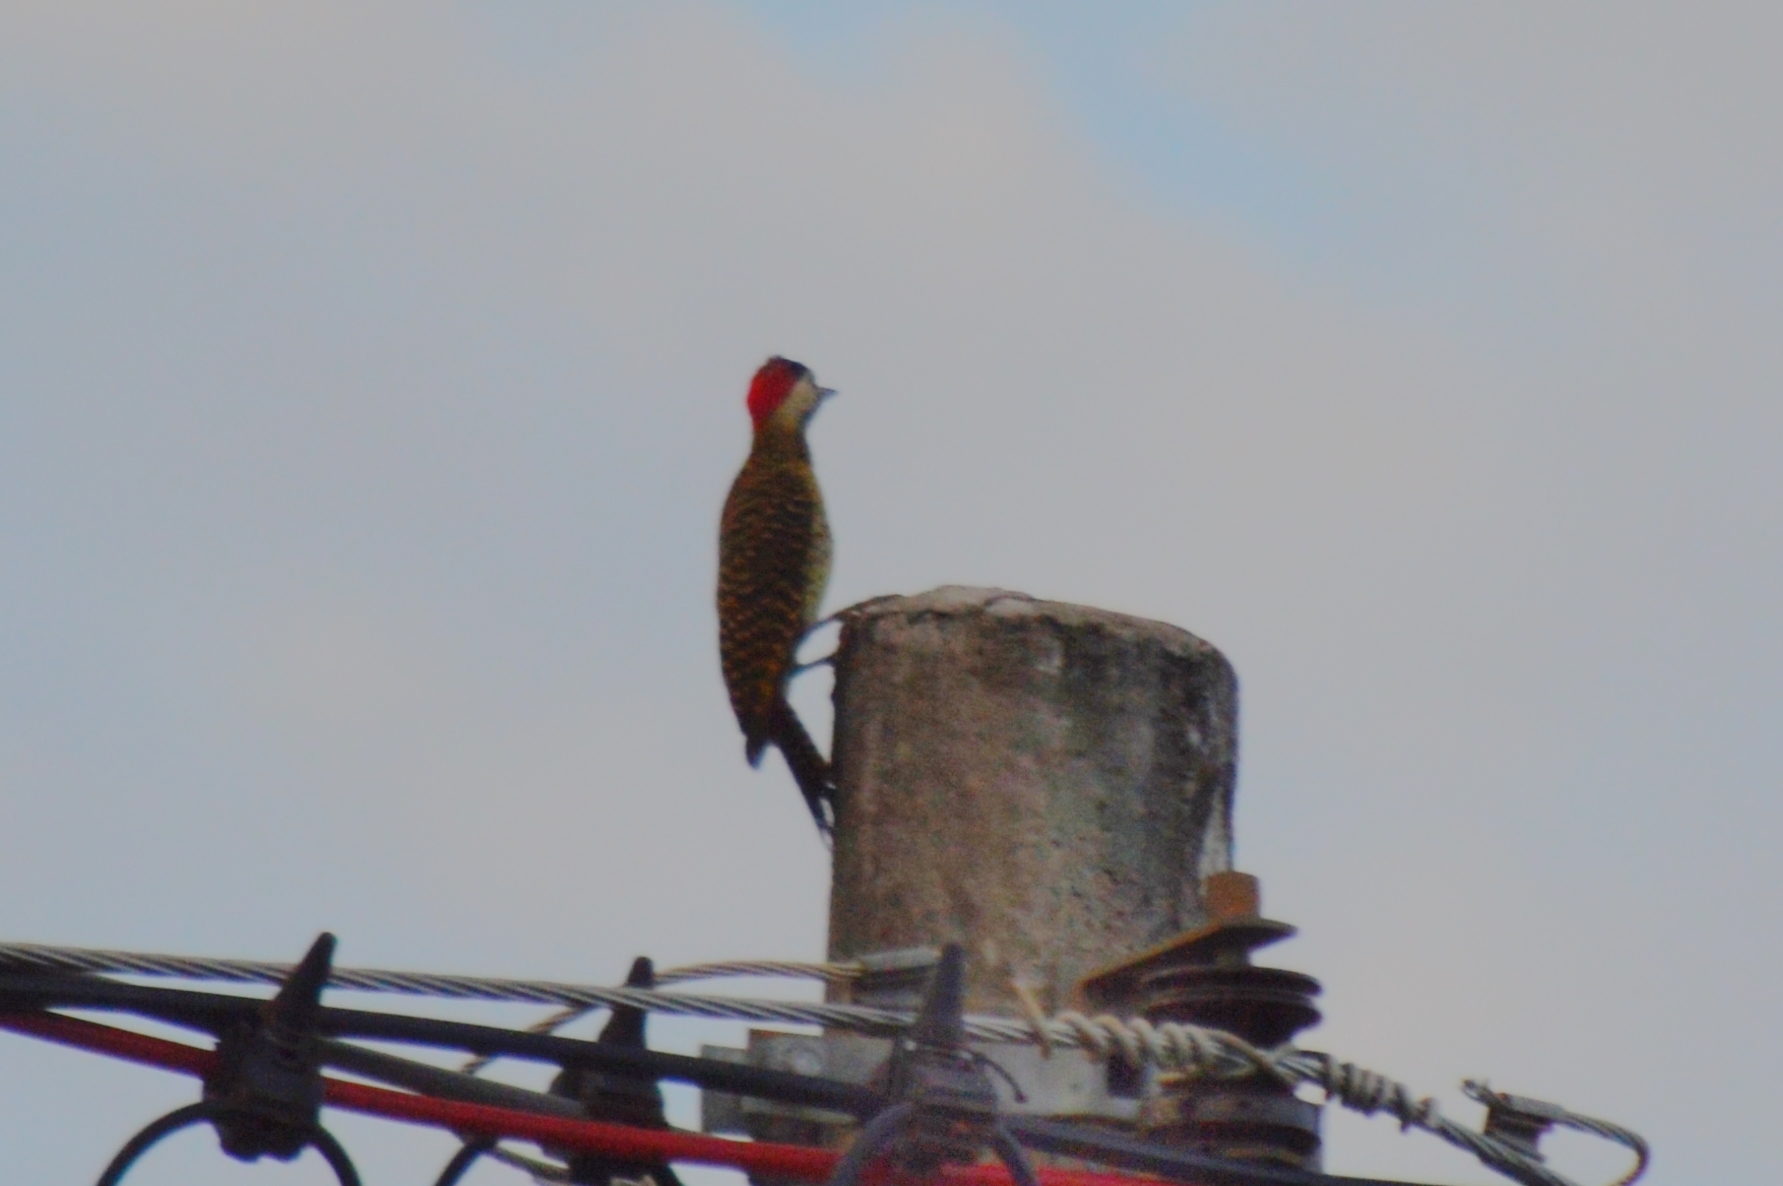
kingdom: Animalia
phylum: Chordata
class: Aves
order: Piciformes
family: Picidae
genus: Colaptes
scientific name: Colaptes melanochloros
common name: Green-barred woodpecker
